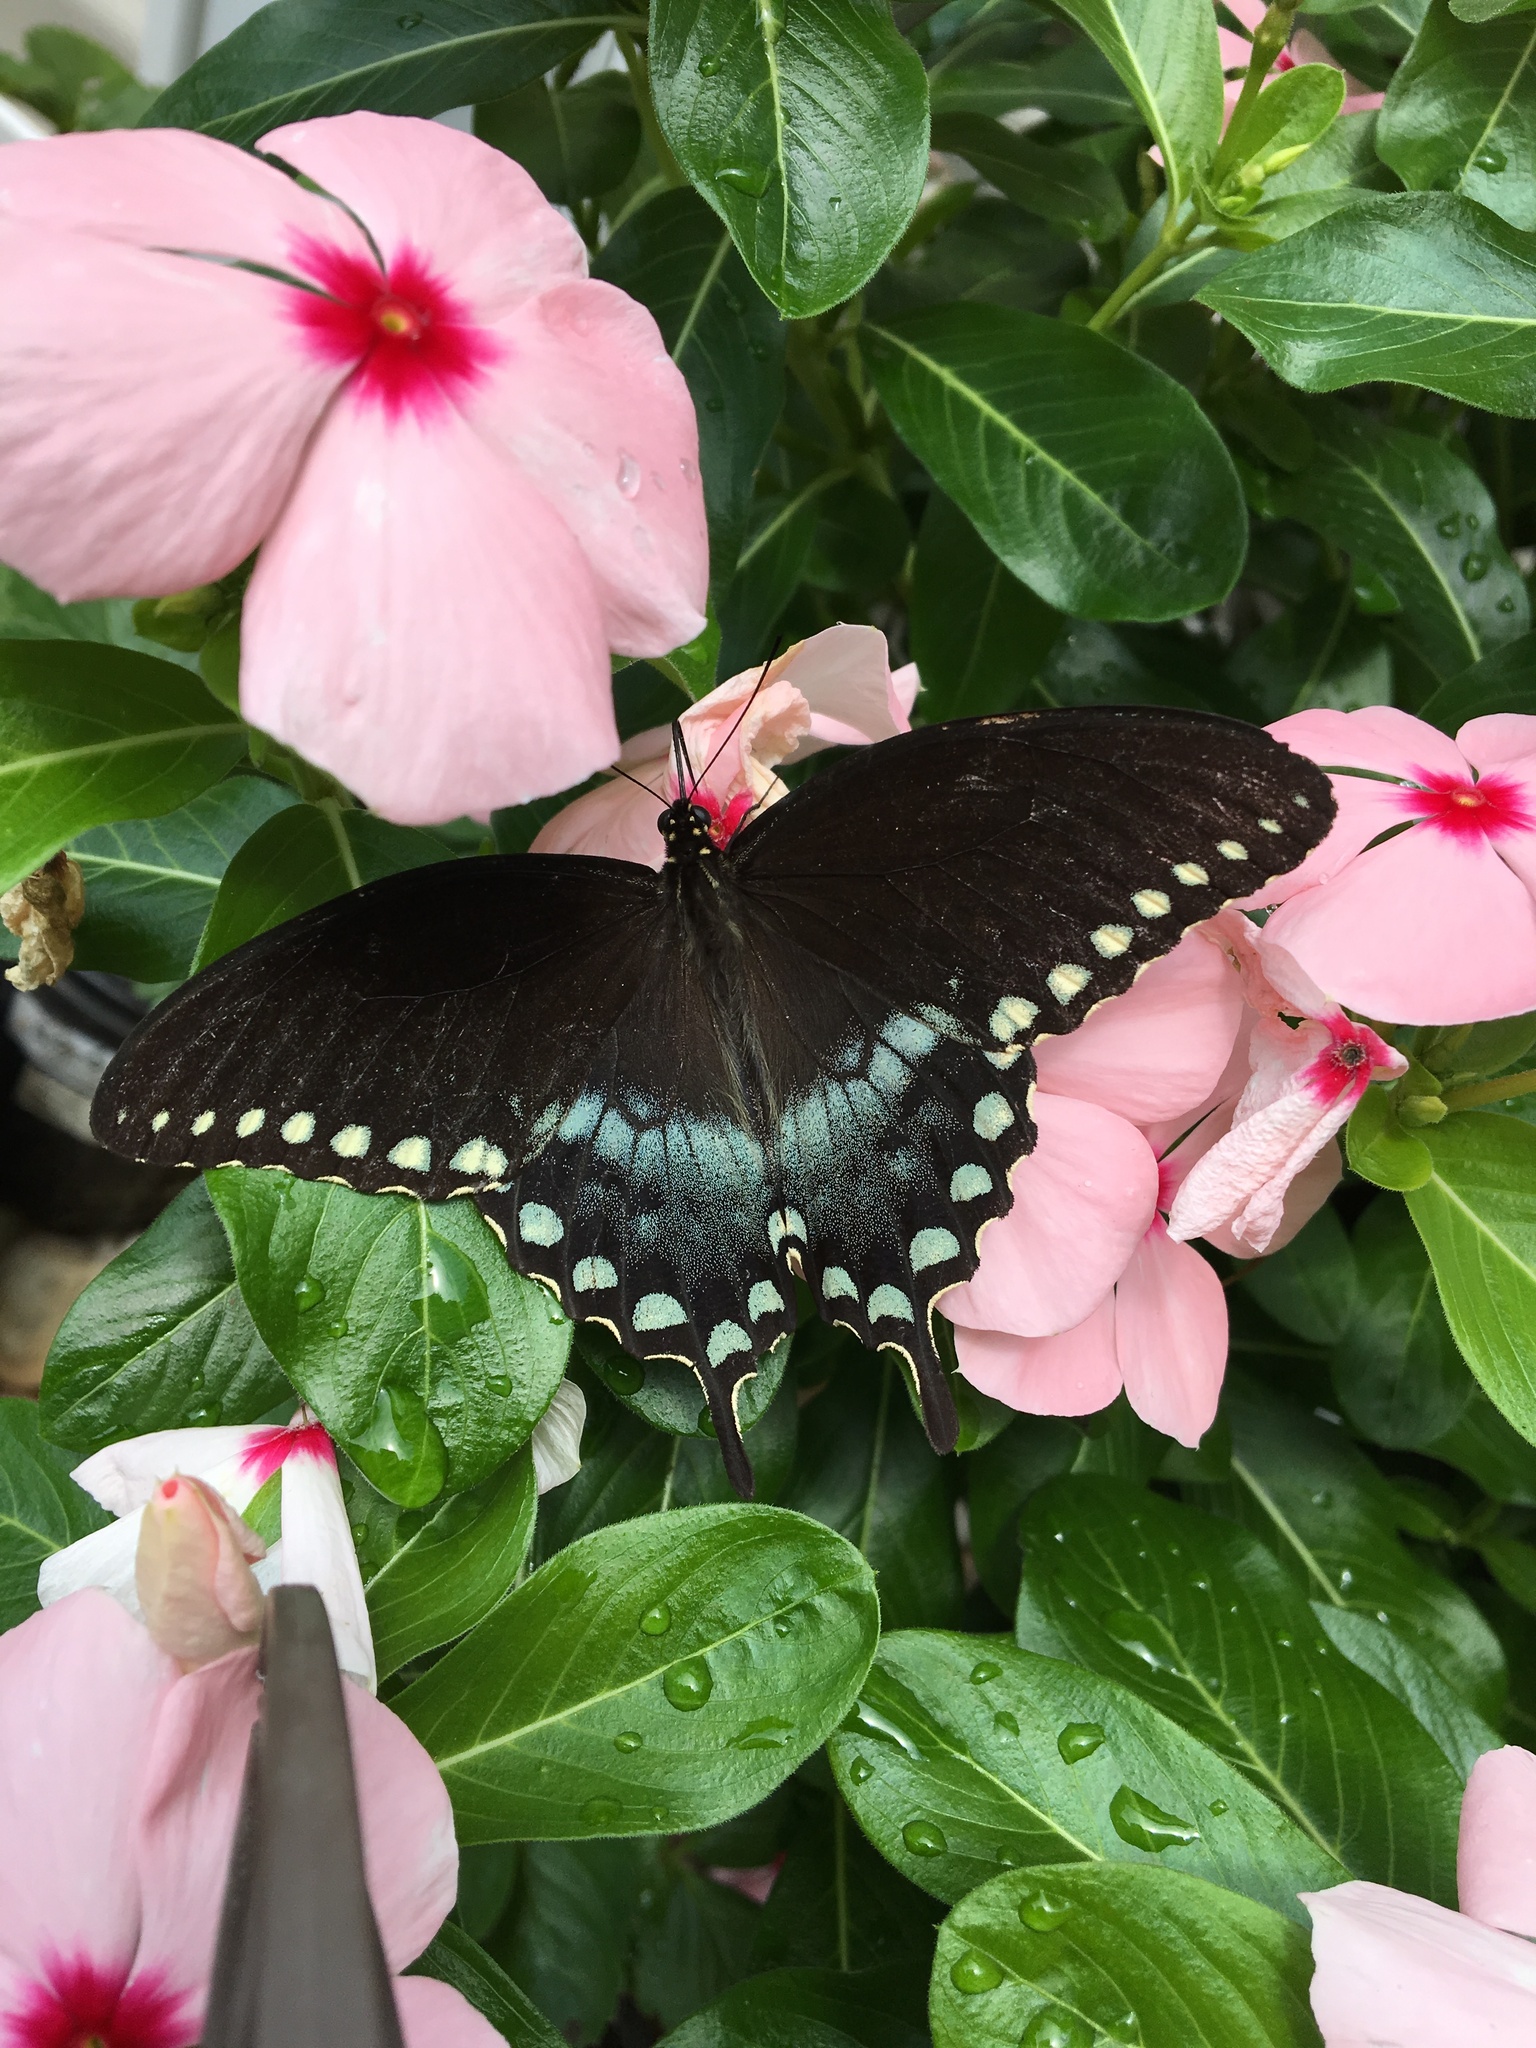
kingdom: Animalia
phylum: Arthropoda
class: Insecta
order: Lepidoptera
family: Papilionidae
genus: Papilio
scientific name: Papilio troilus
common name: Spicebush swallowtail
